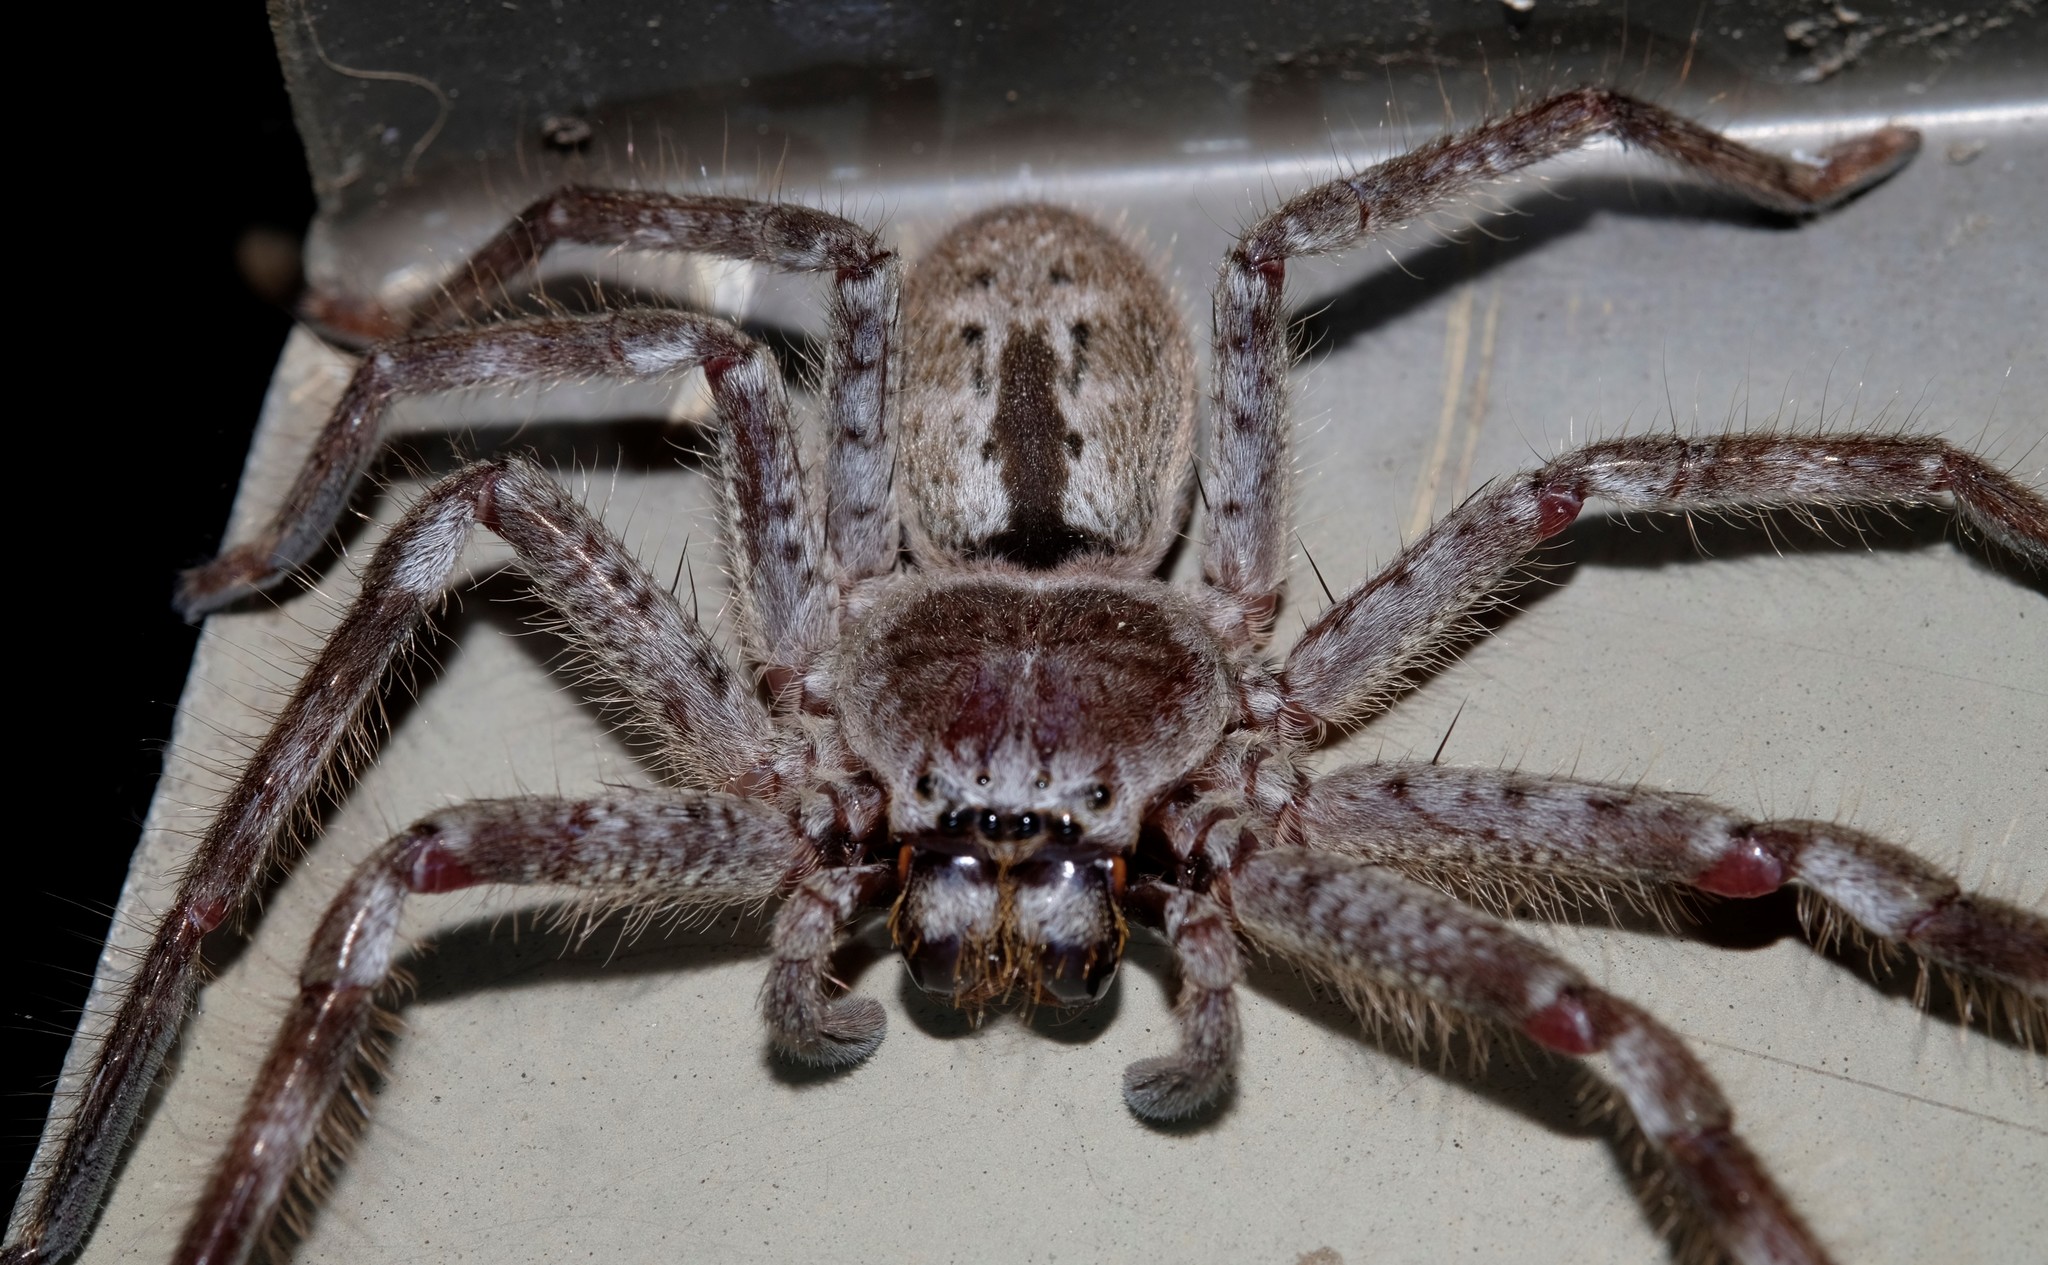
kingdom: Animalia
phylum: Arthropoda
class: Arachnida
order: Araneae
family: Sparassidae
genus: Isopeda
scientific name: Isopeda montana
